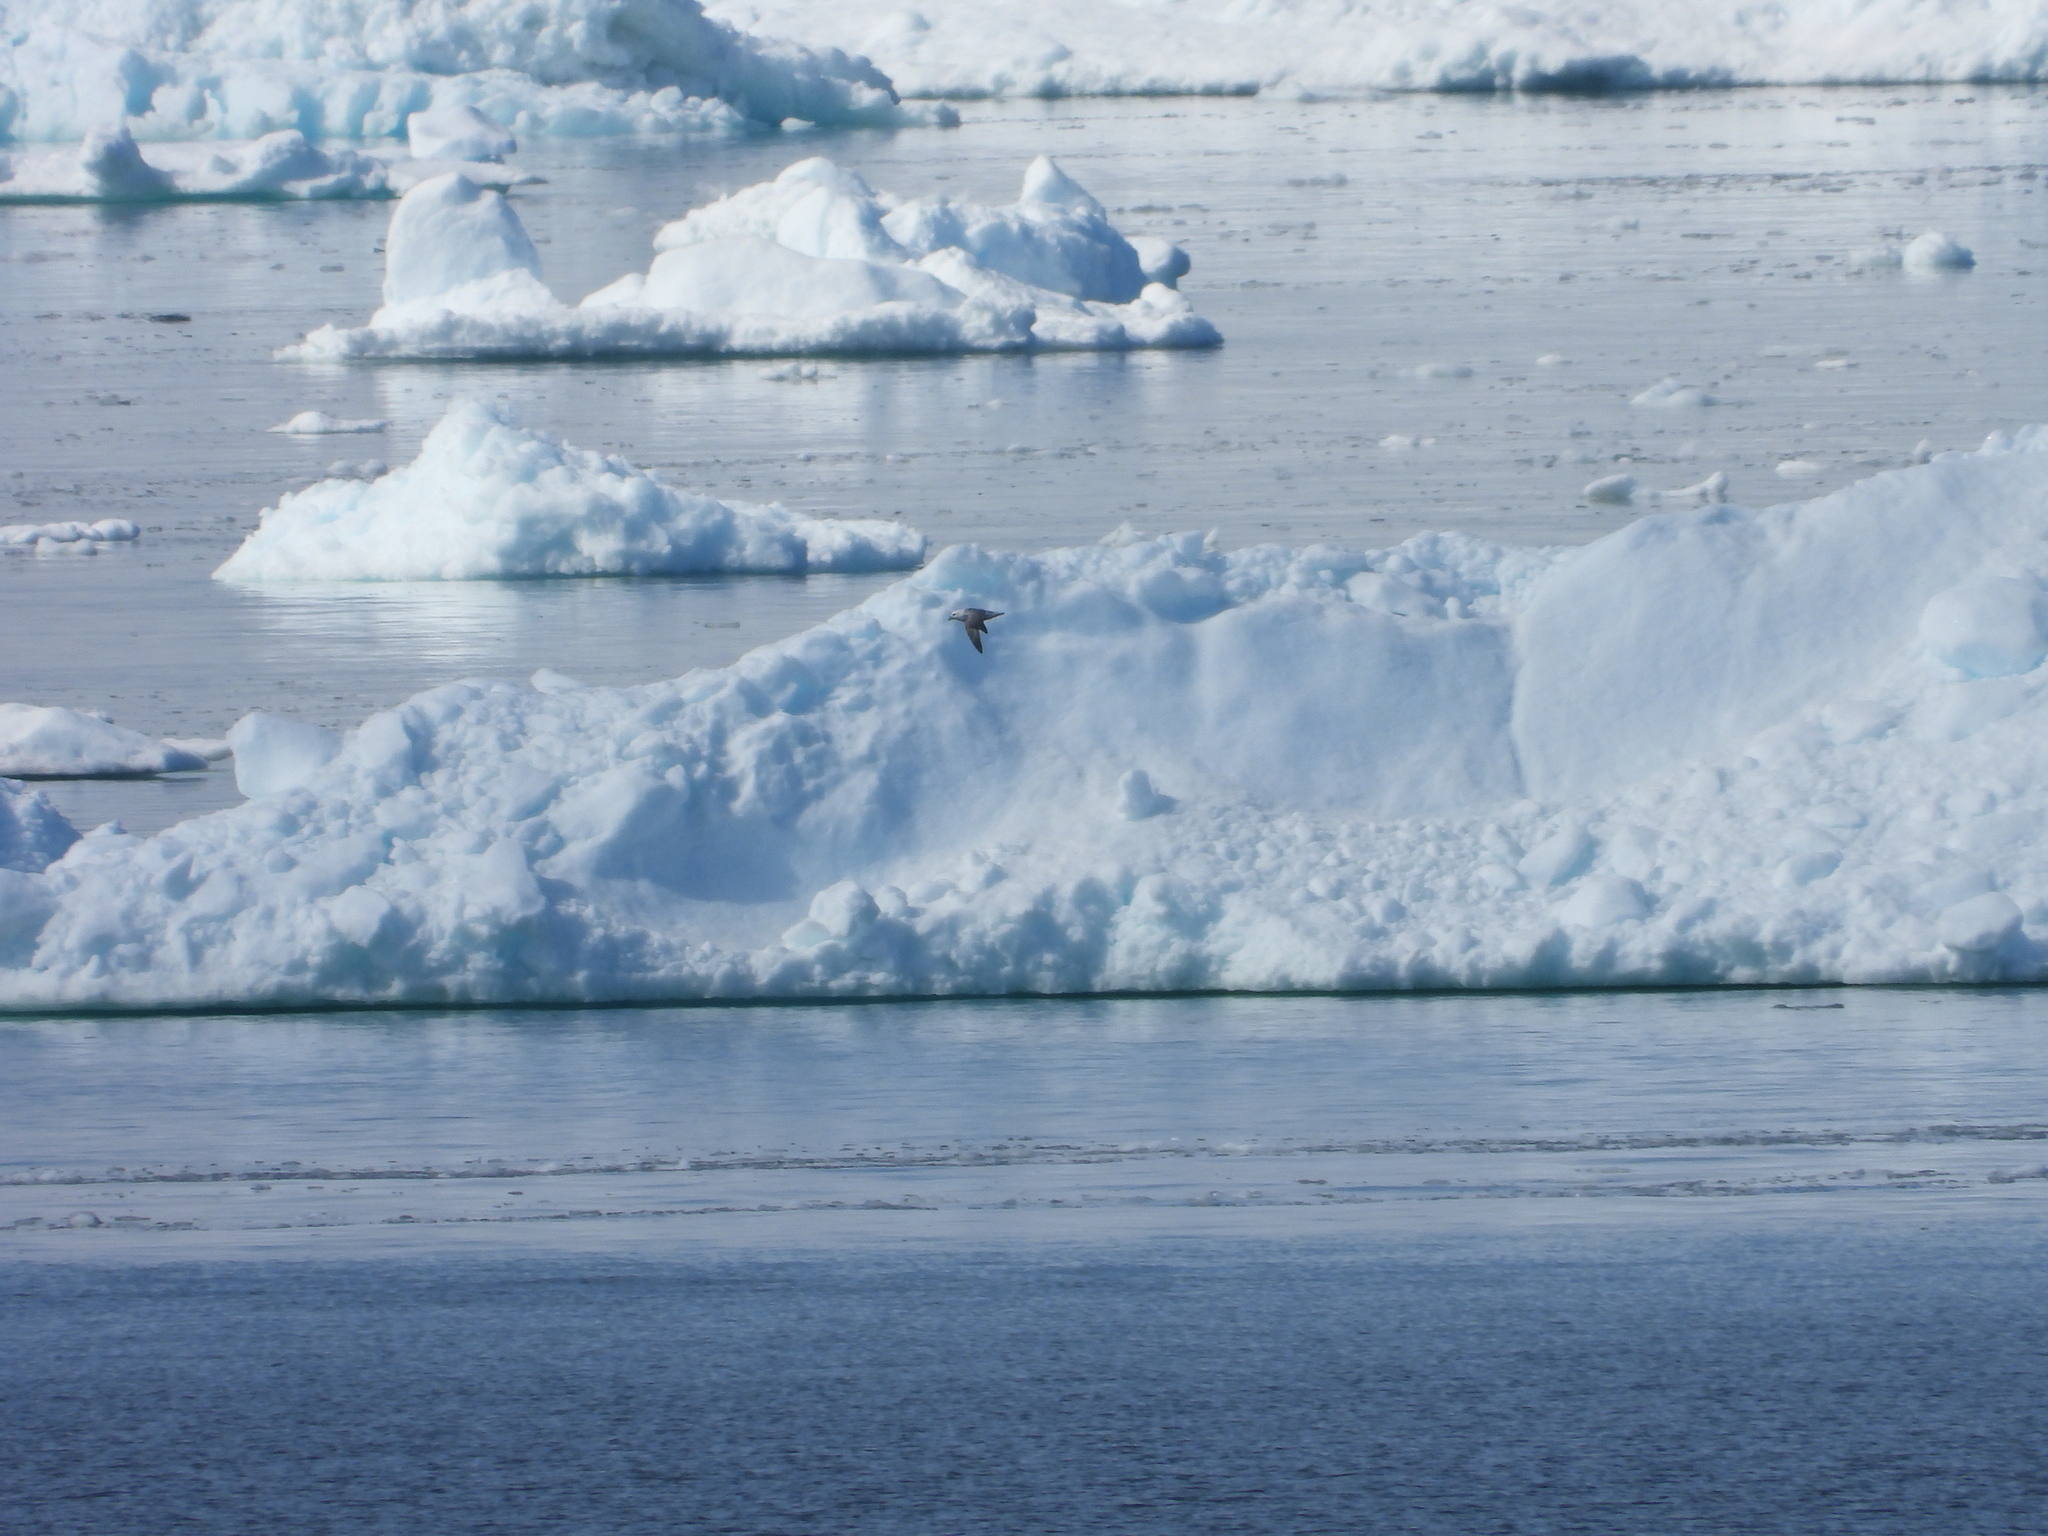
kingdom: Animalia
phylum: Chordata
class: Aves
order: Procellariiformes
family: Procellariidae
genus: Fulmarus
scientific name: Fulmarus glacialis
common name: Northern fulmar
